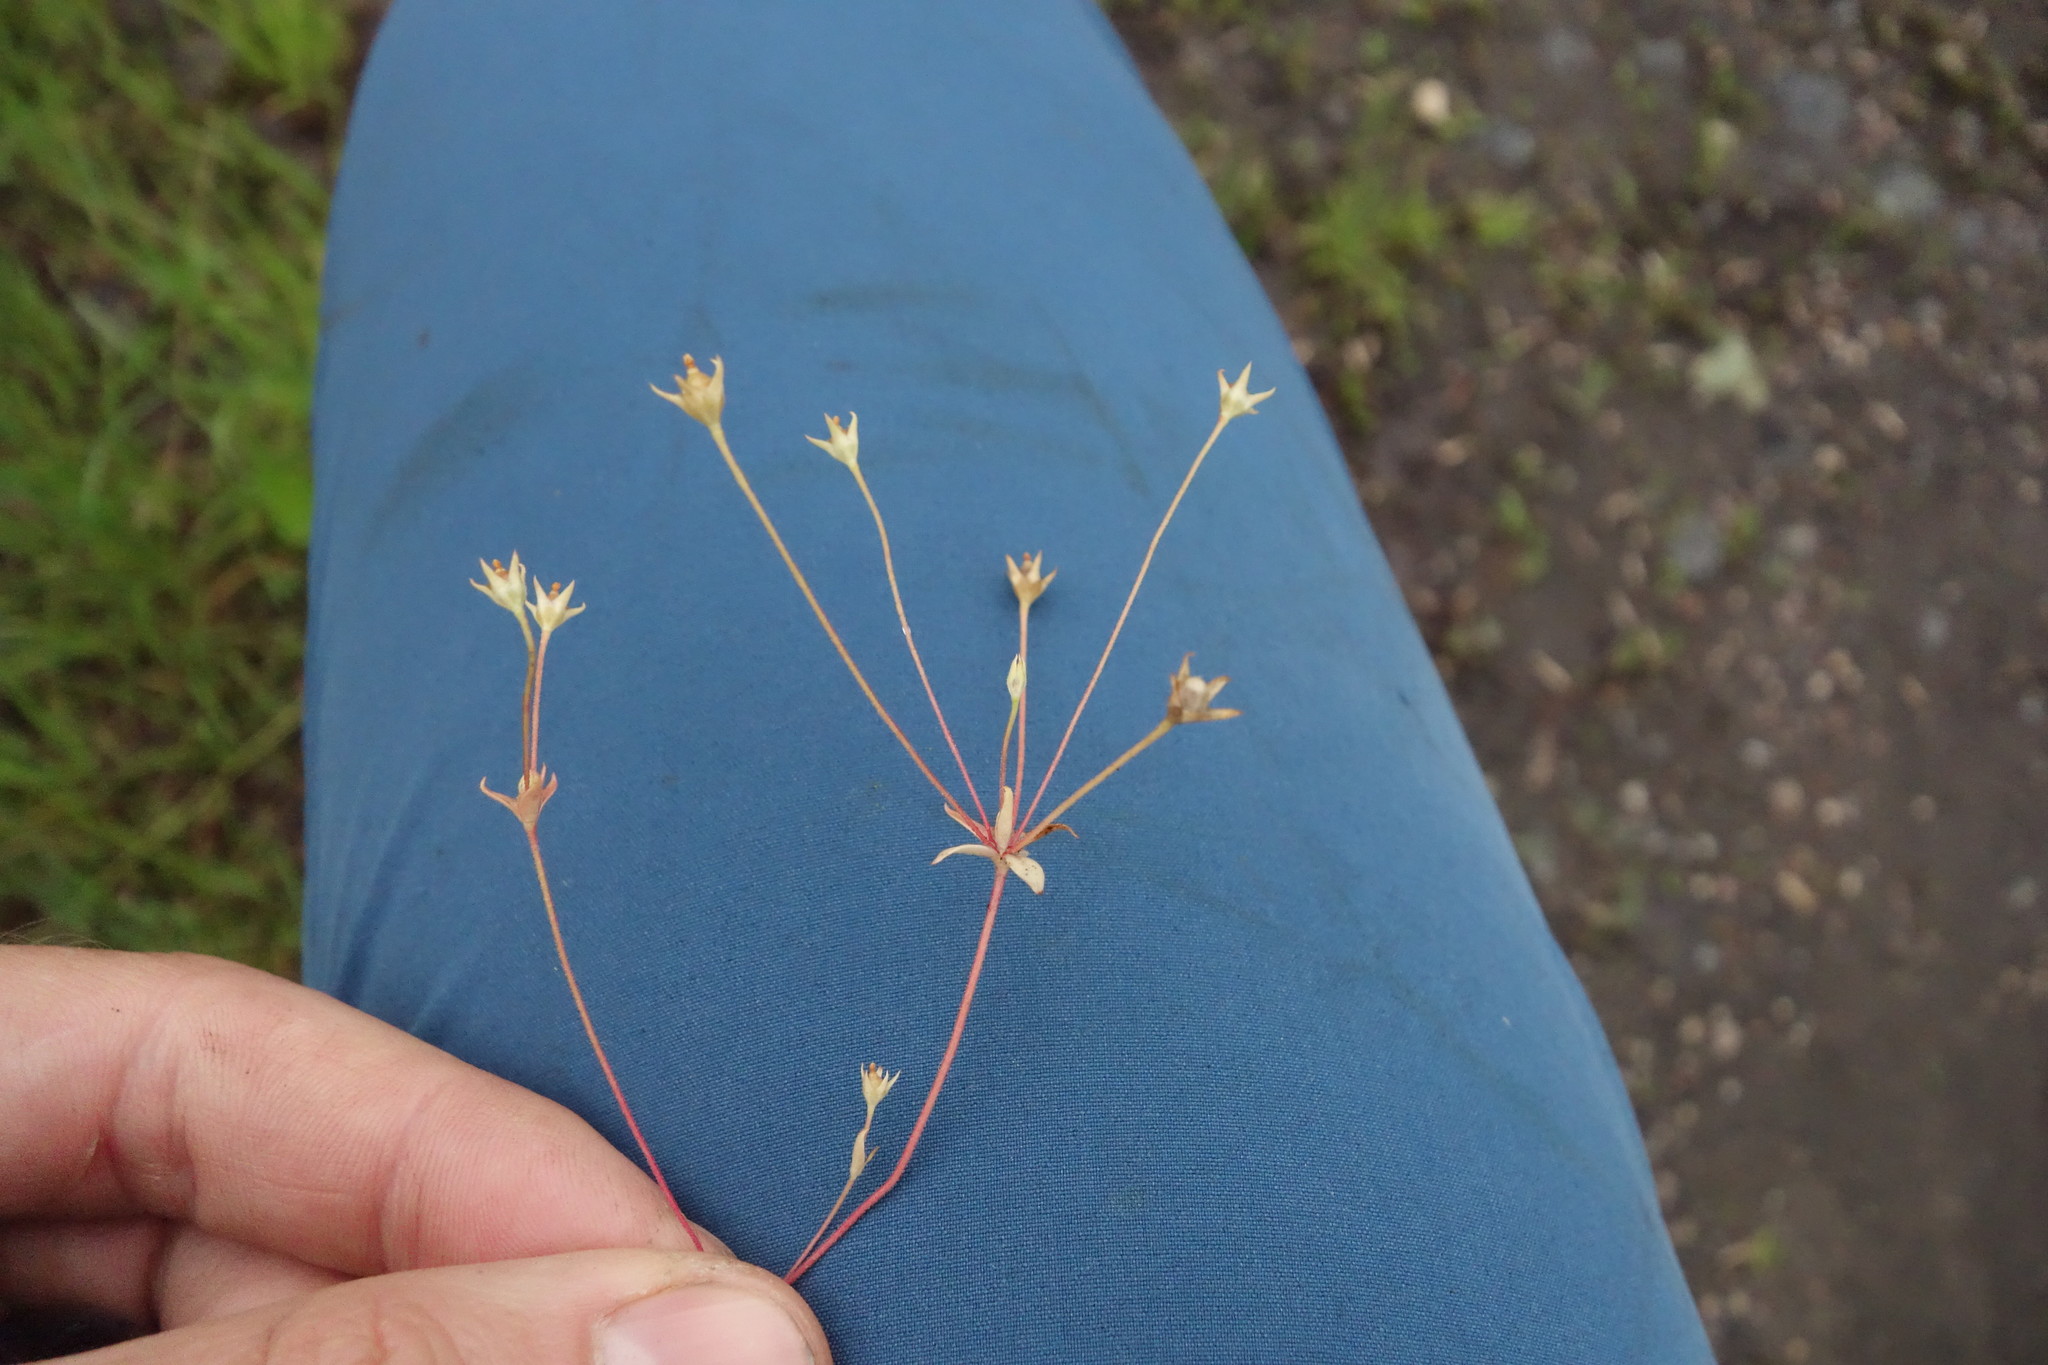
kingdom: Plantae
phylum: Tracheophyta
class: Magnoliopsida
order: Ericales
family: Primulaceae
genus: Androsace
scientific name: Androsace elongata
